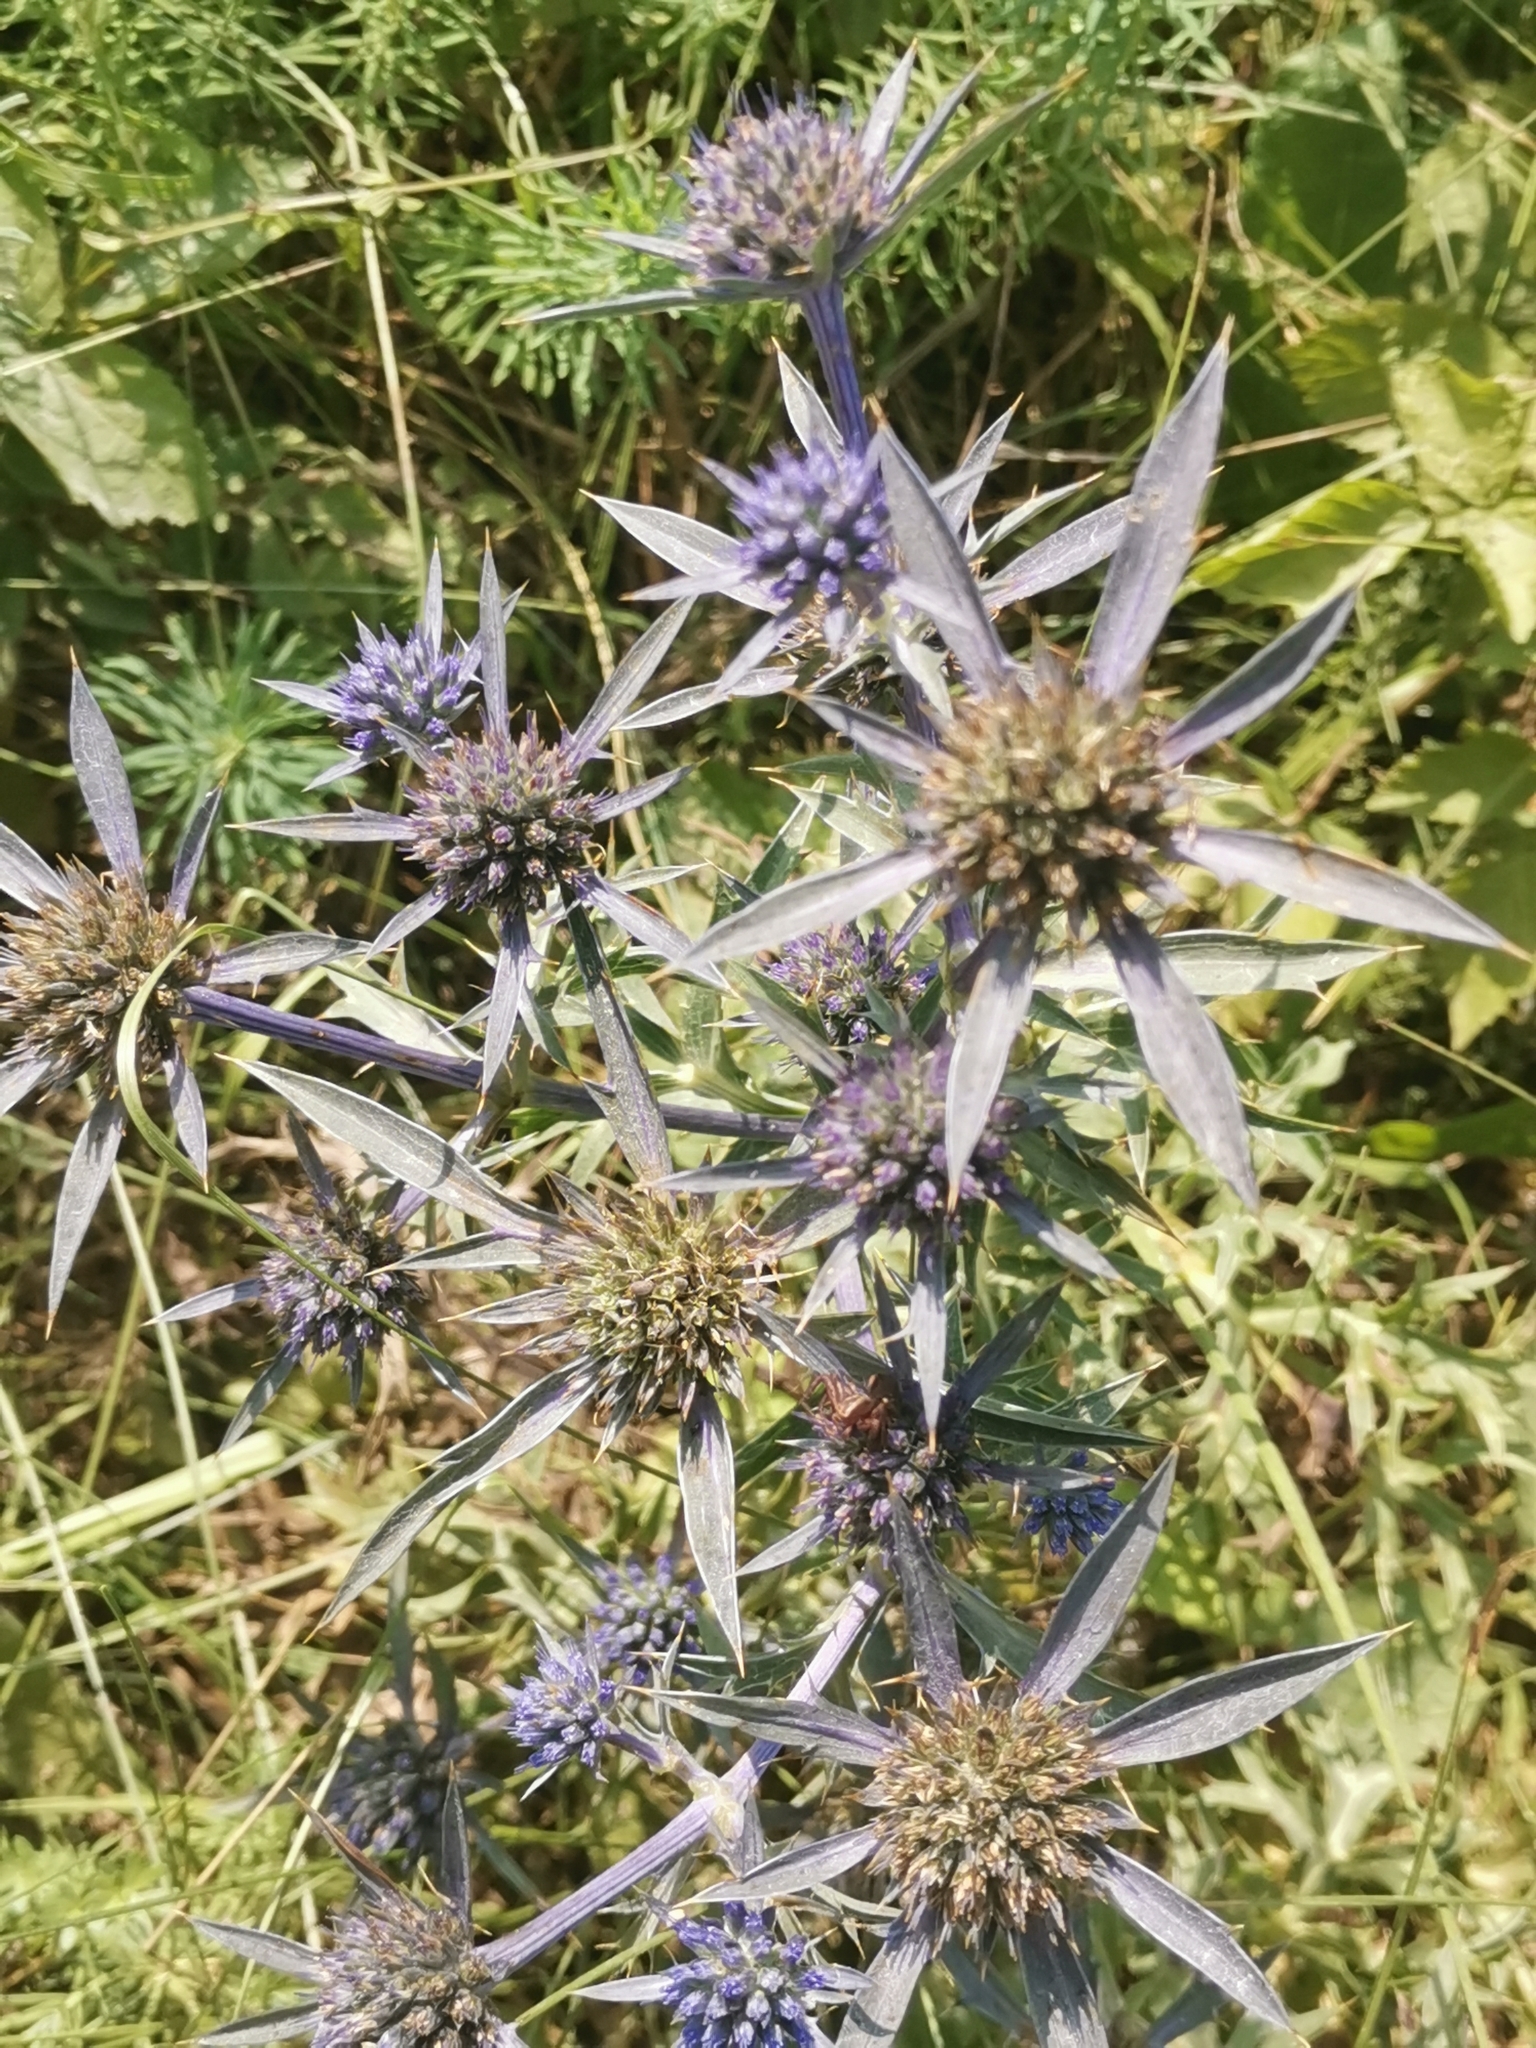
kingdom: Plantae
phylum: Tracheophyta
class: Magnoliopsida
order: Apiales
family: Apiaceae
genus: Eryngium
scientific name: Eryngium amethystinum
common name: Amethyst eryngo
